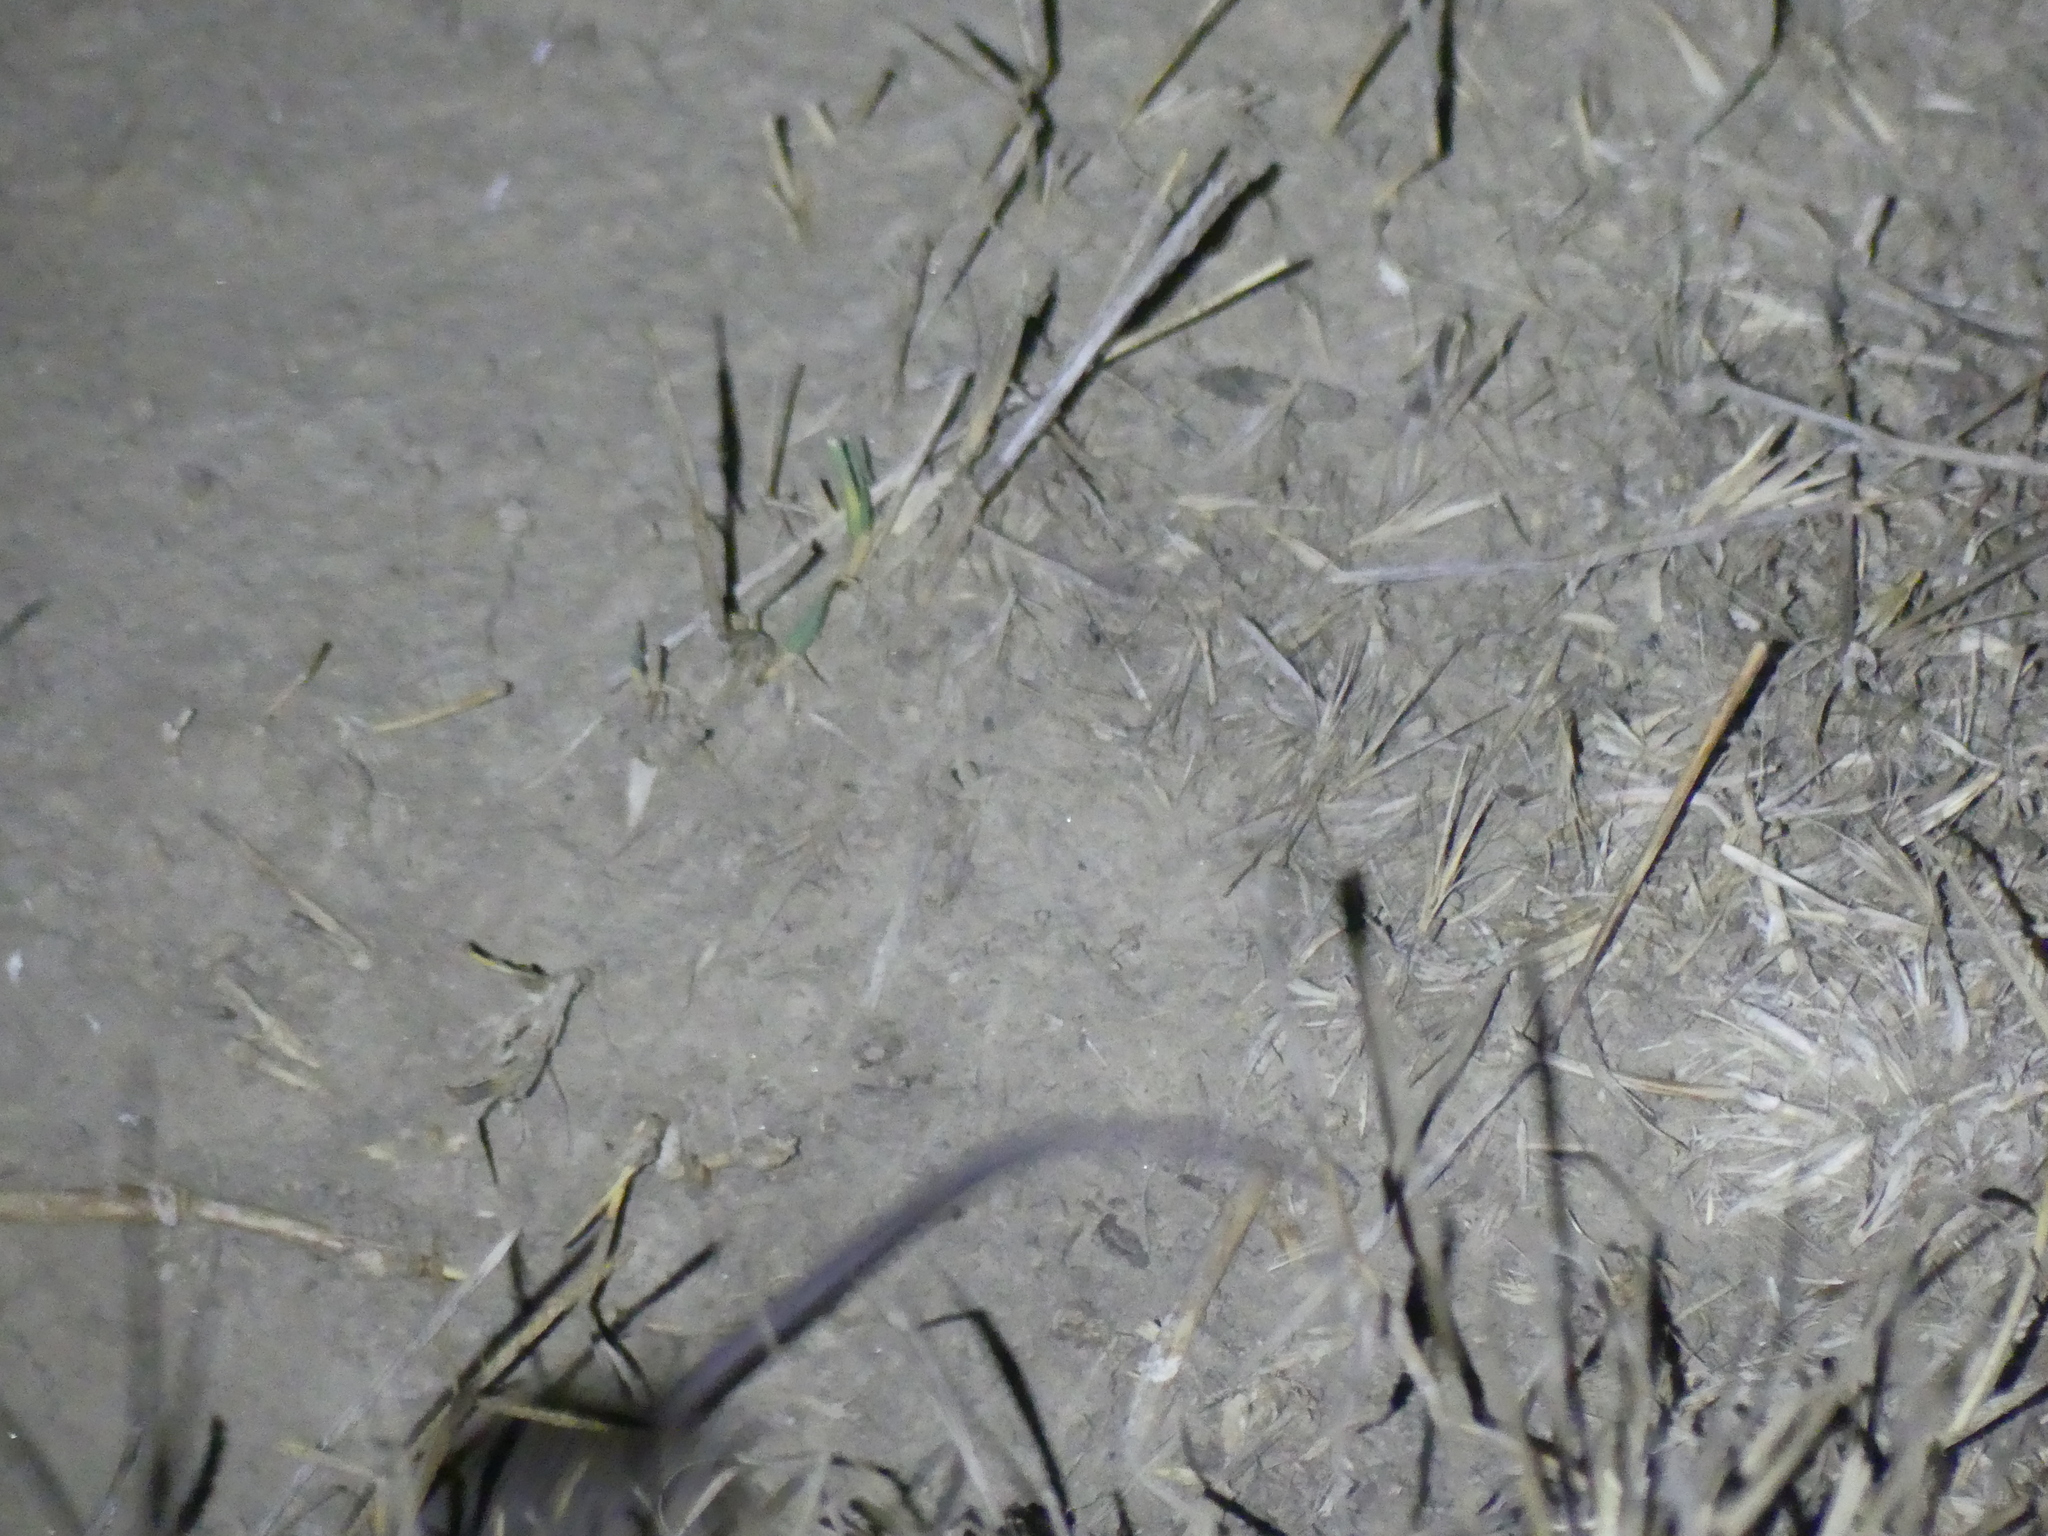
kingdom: Animalia
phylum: Chordata
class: Mammalia
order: Rodentia
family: Muridae
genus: Apodemus
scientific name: Apodemus sylvaticus
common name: Wood mouse
